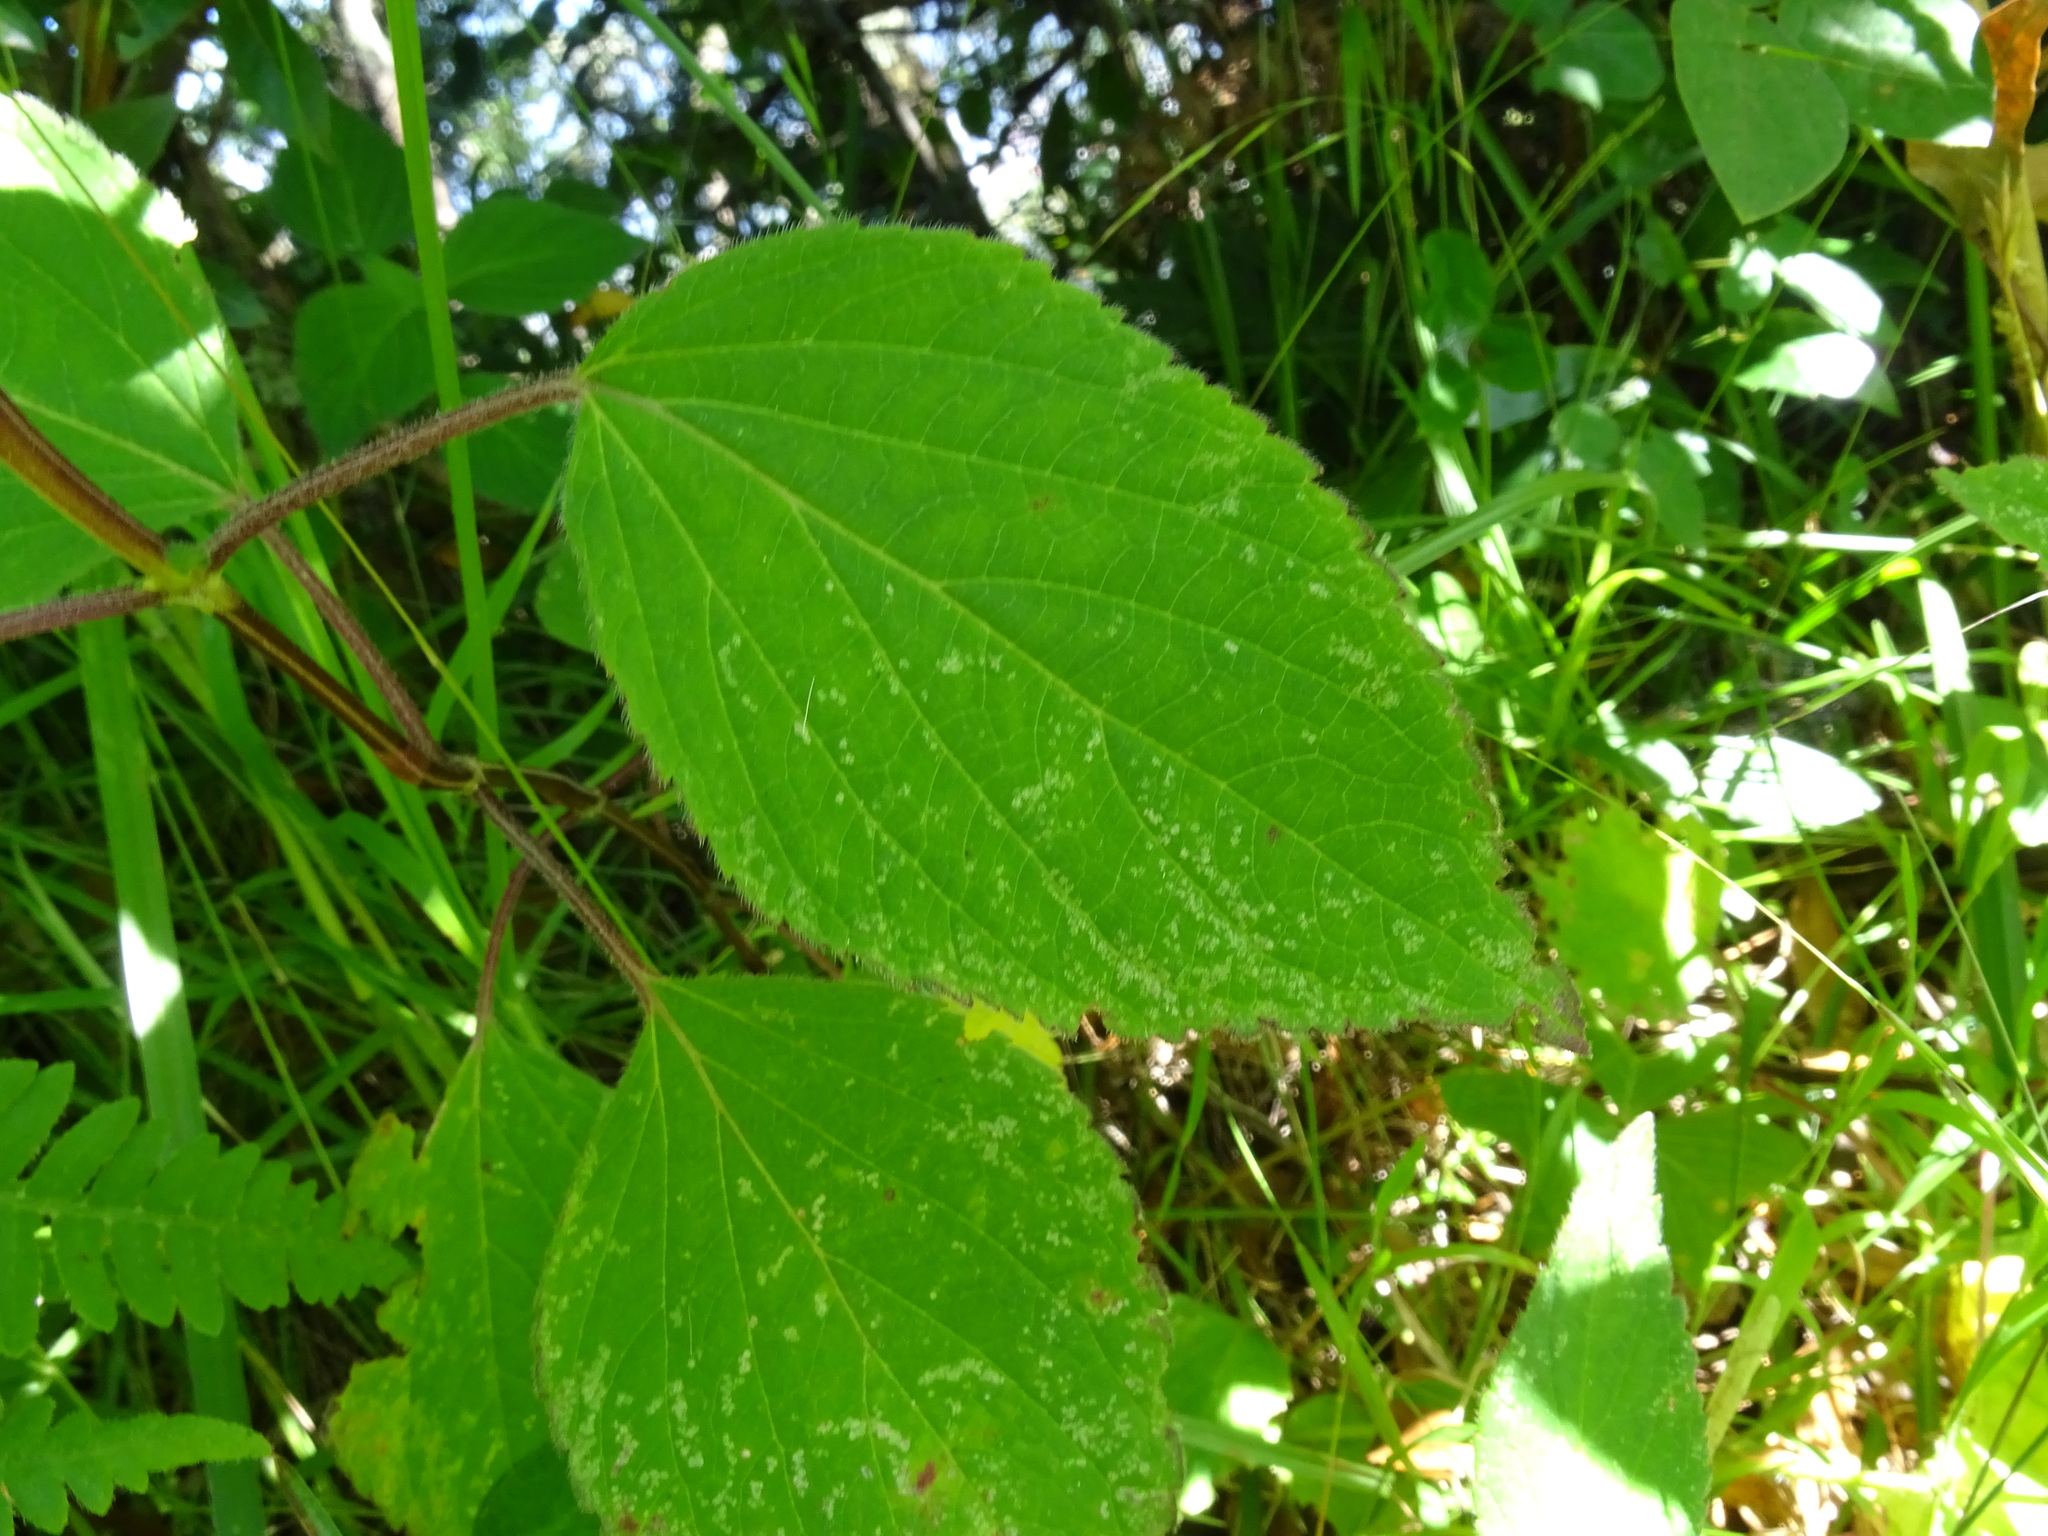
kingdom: Plantae
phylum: Tracheophyta
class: Magnoliopsida
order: Lamiales
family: Lamiaceae
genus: Salvia
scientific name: Salvia elegans
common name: Pineapple sage
